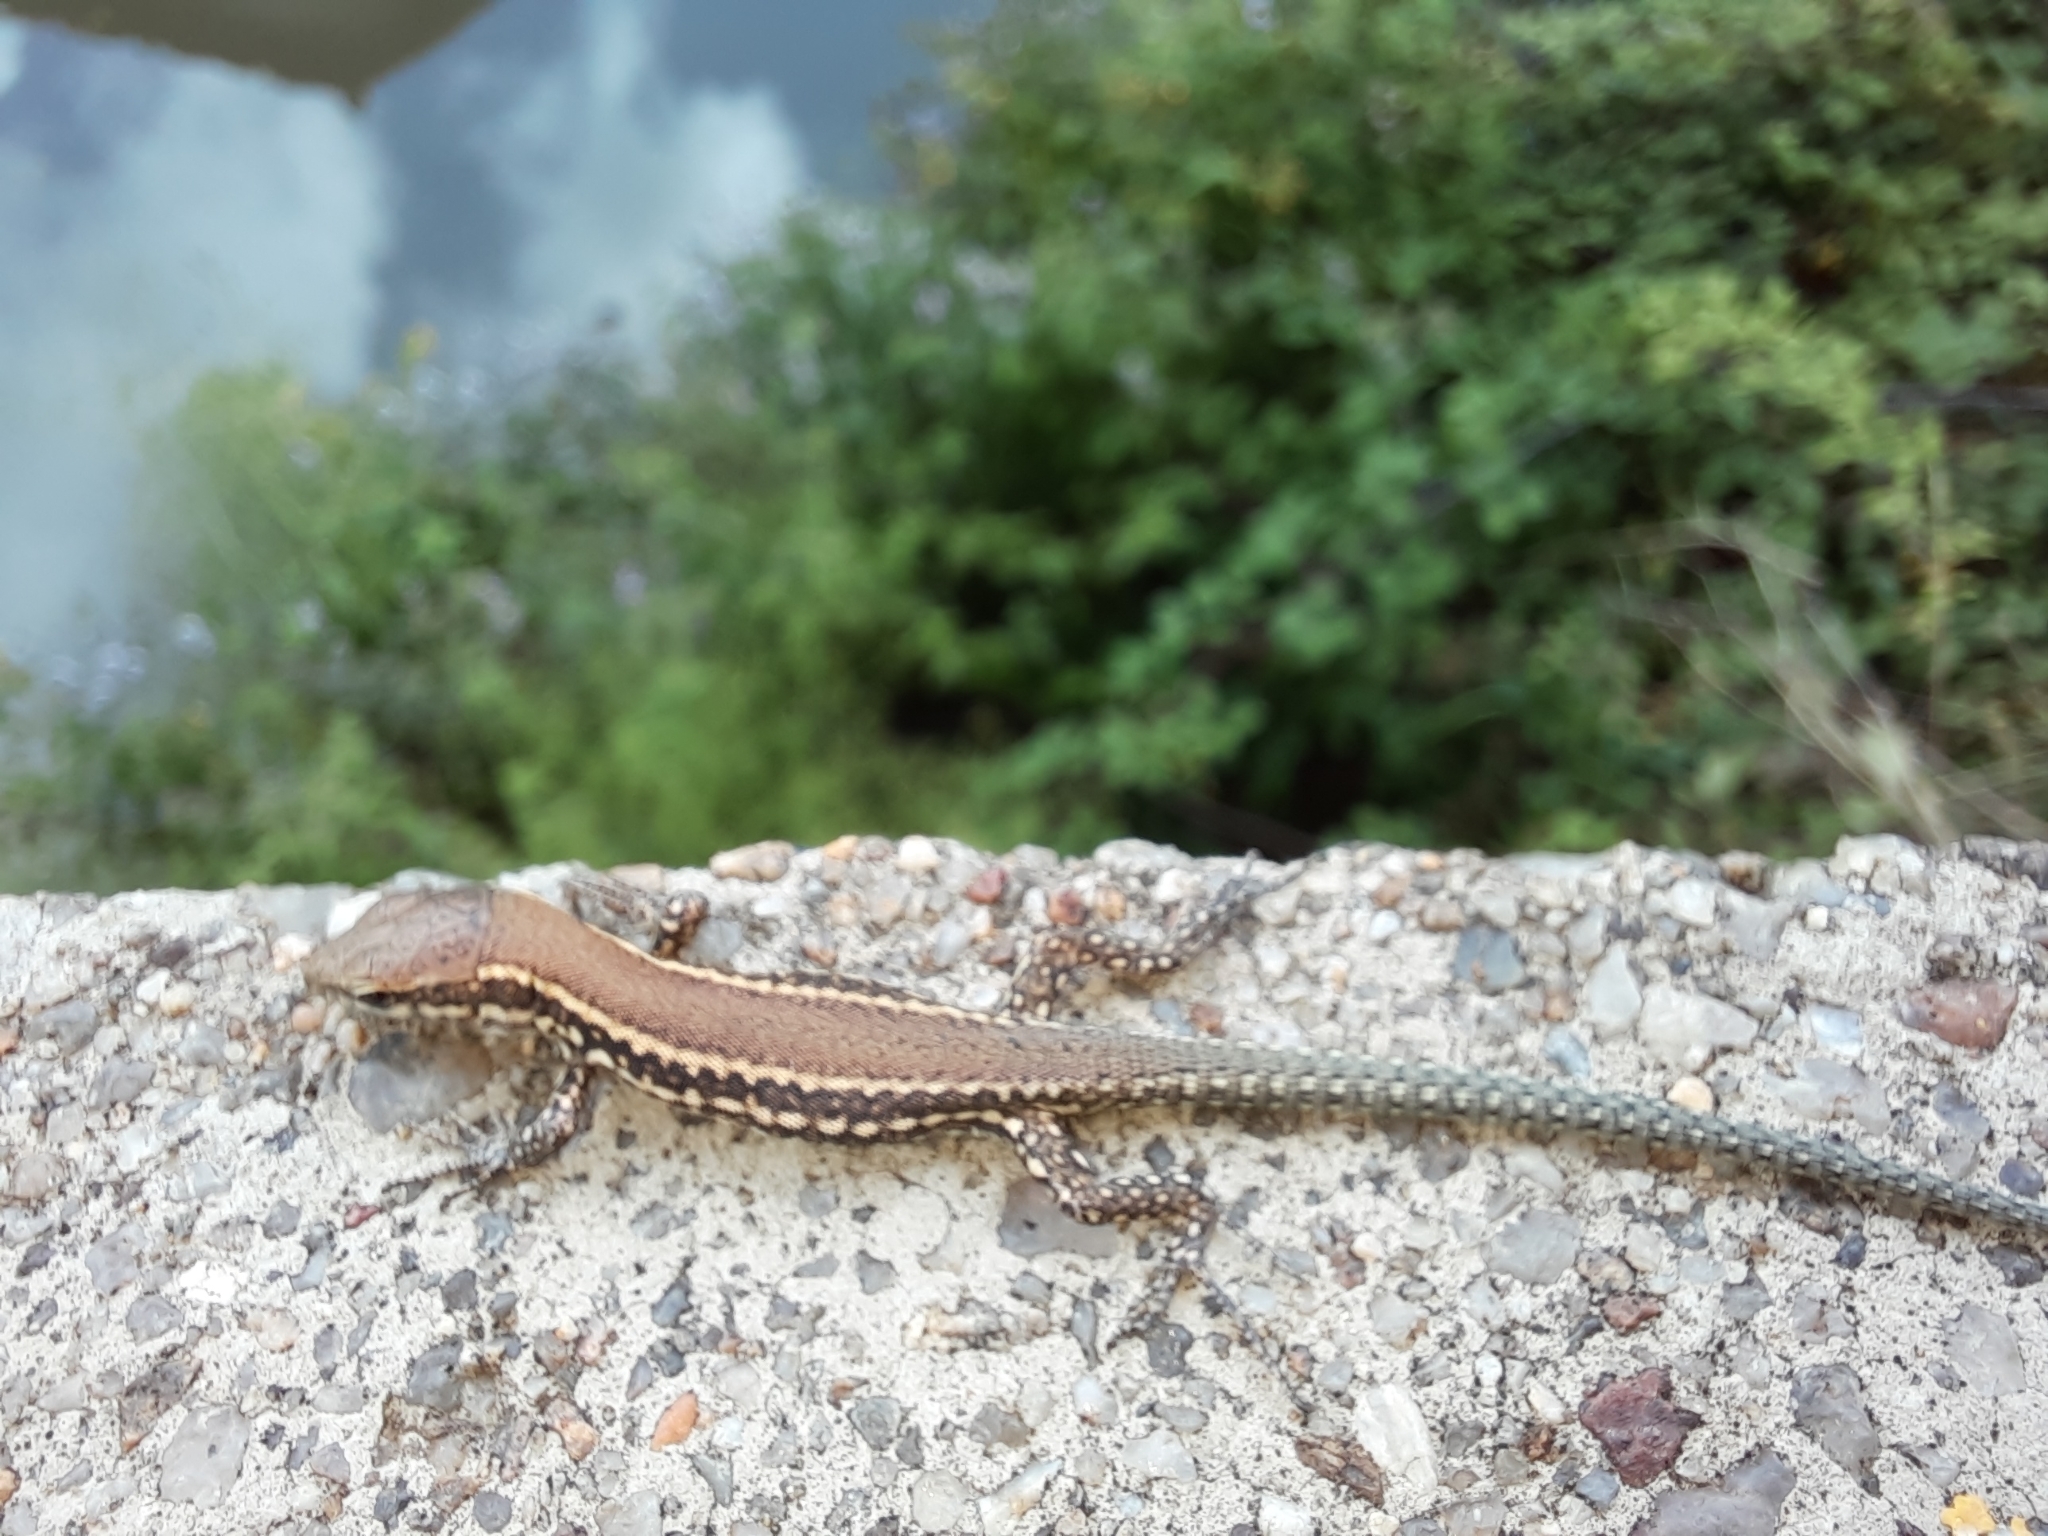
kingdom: Animalia
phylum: Chordata
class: Squamata
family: Lacertidae
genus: Podarcis
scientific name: Podarcis muralis
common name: Common wall lizard
